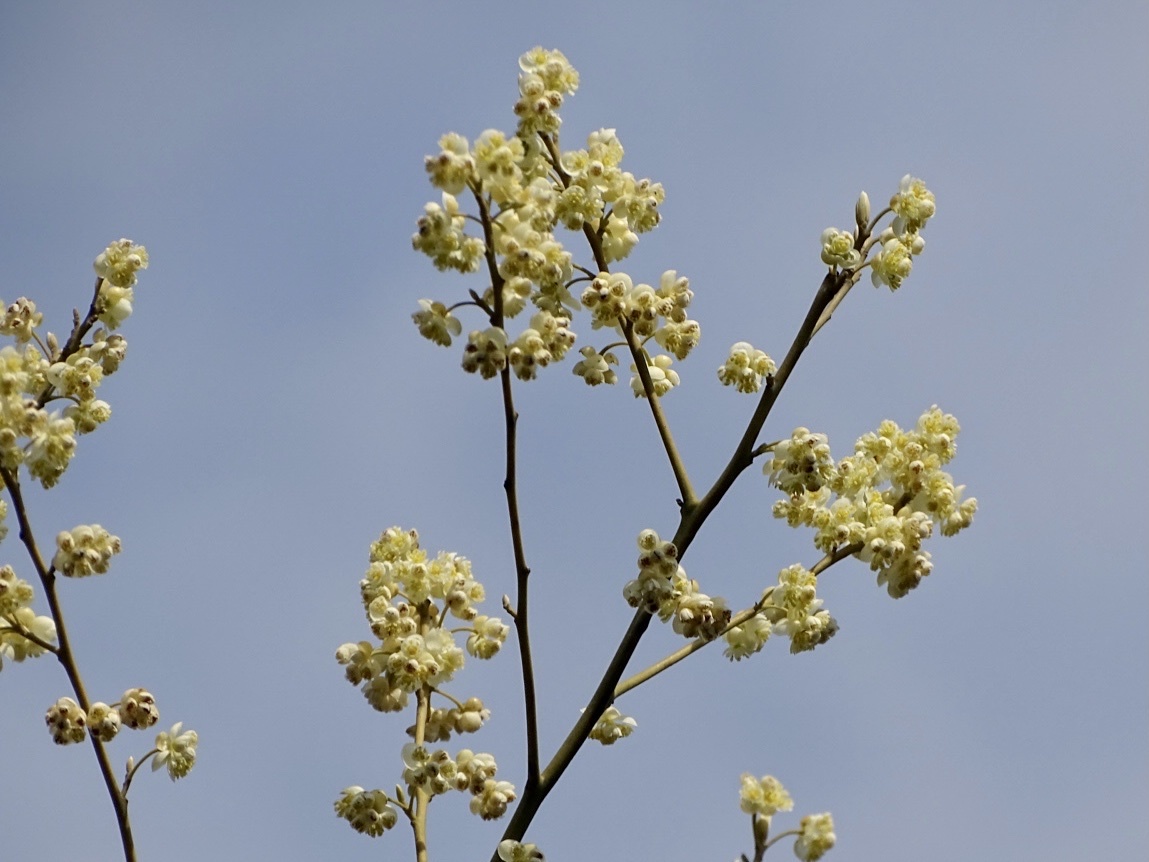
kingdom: Plantae
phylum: Tracheophyta
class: Magnoliopsida
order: Laurales
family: Lauraceae
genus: Litsea
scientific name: Litsea cubeba
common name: Mountain-pepper
